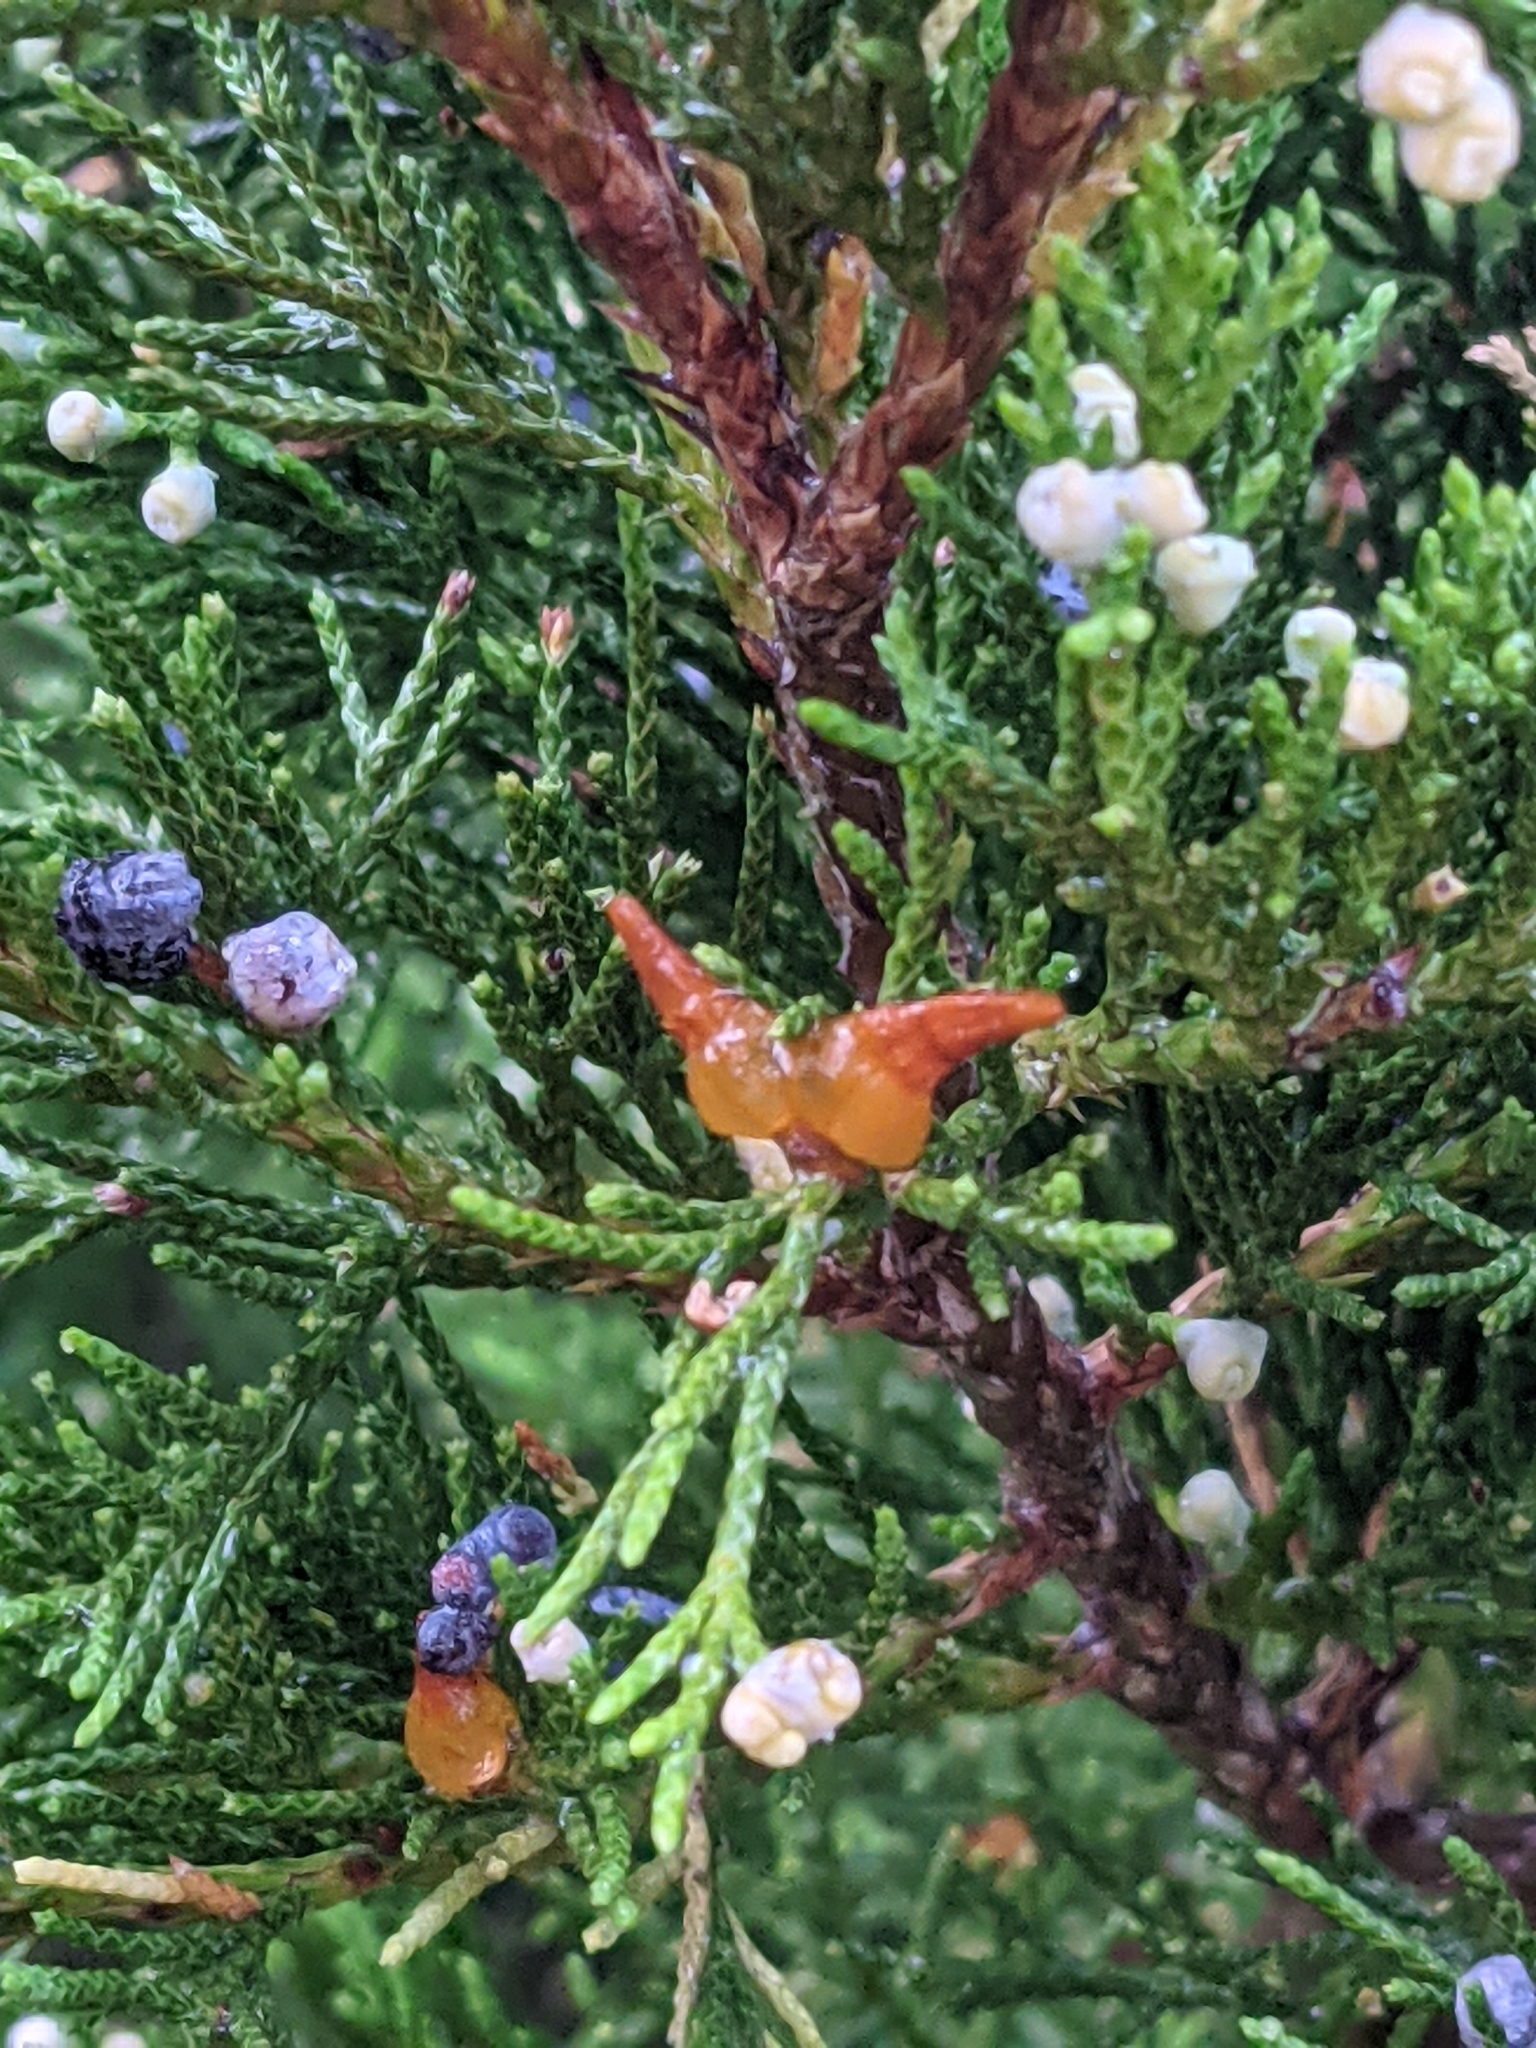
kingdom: Fungi
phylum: Basidiomycota
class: Pucciniomycetes
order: Pucciniales
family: Gymnosporangiaceae
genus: Gymnosporangium
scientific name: Gymnosporangium juniperi-virginianae
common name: Juniper-apple rust
